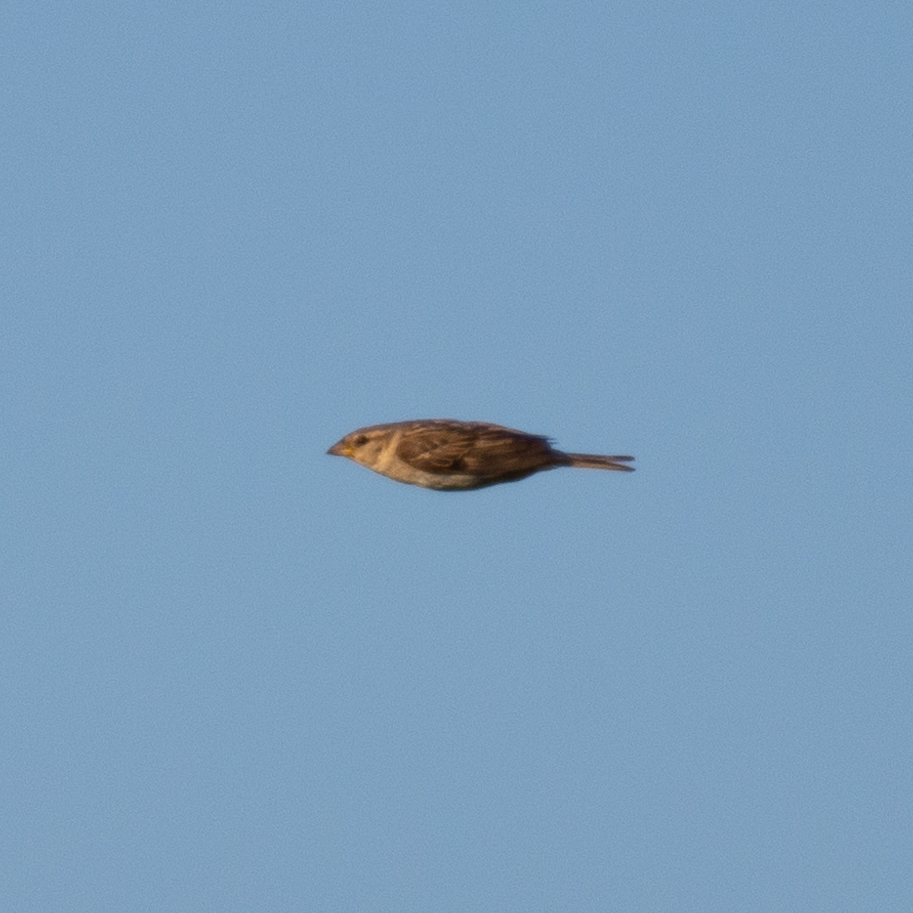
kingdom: Animalia
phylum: Chordata
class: Aves
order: Passeriformes
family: Passeridae
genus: Passer
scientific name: Passer domesticus
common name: House sparrow
